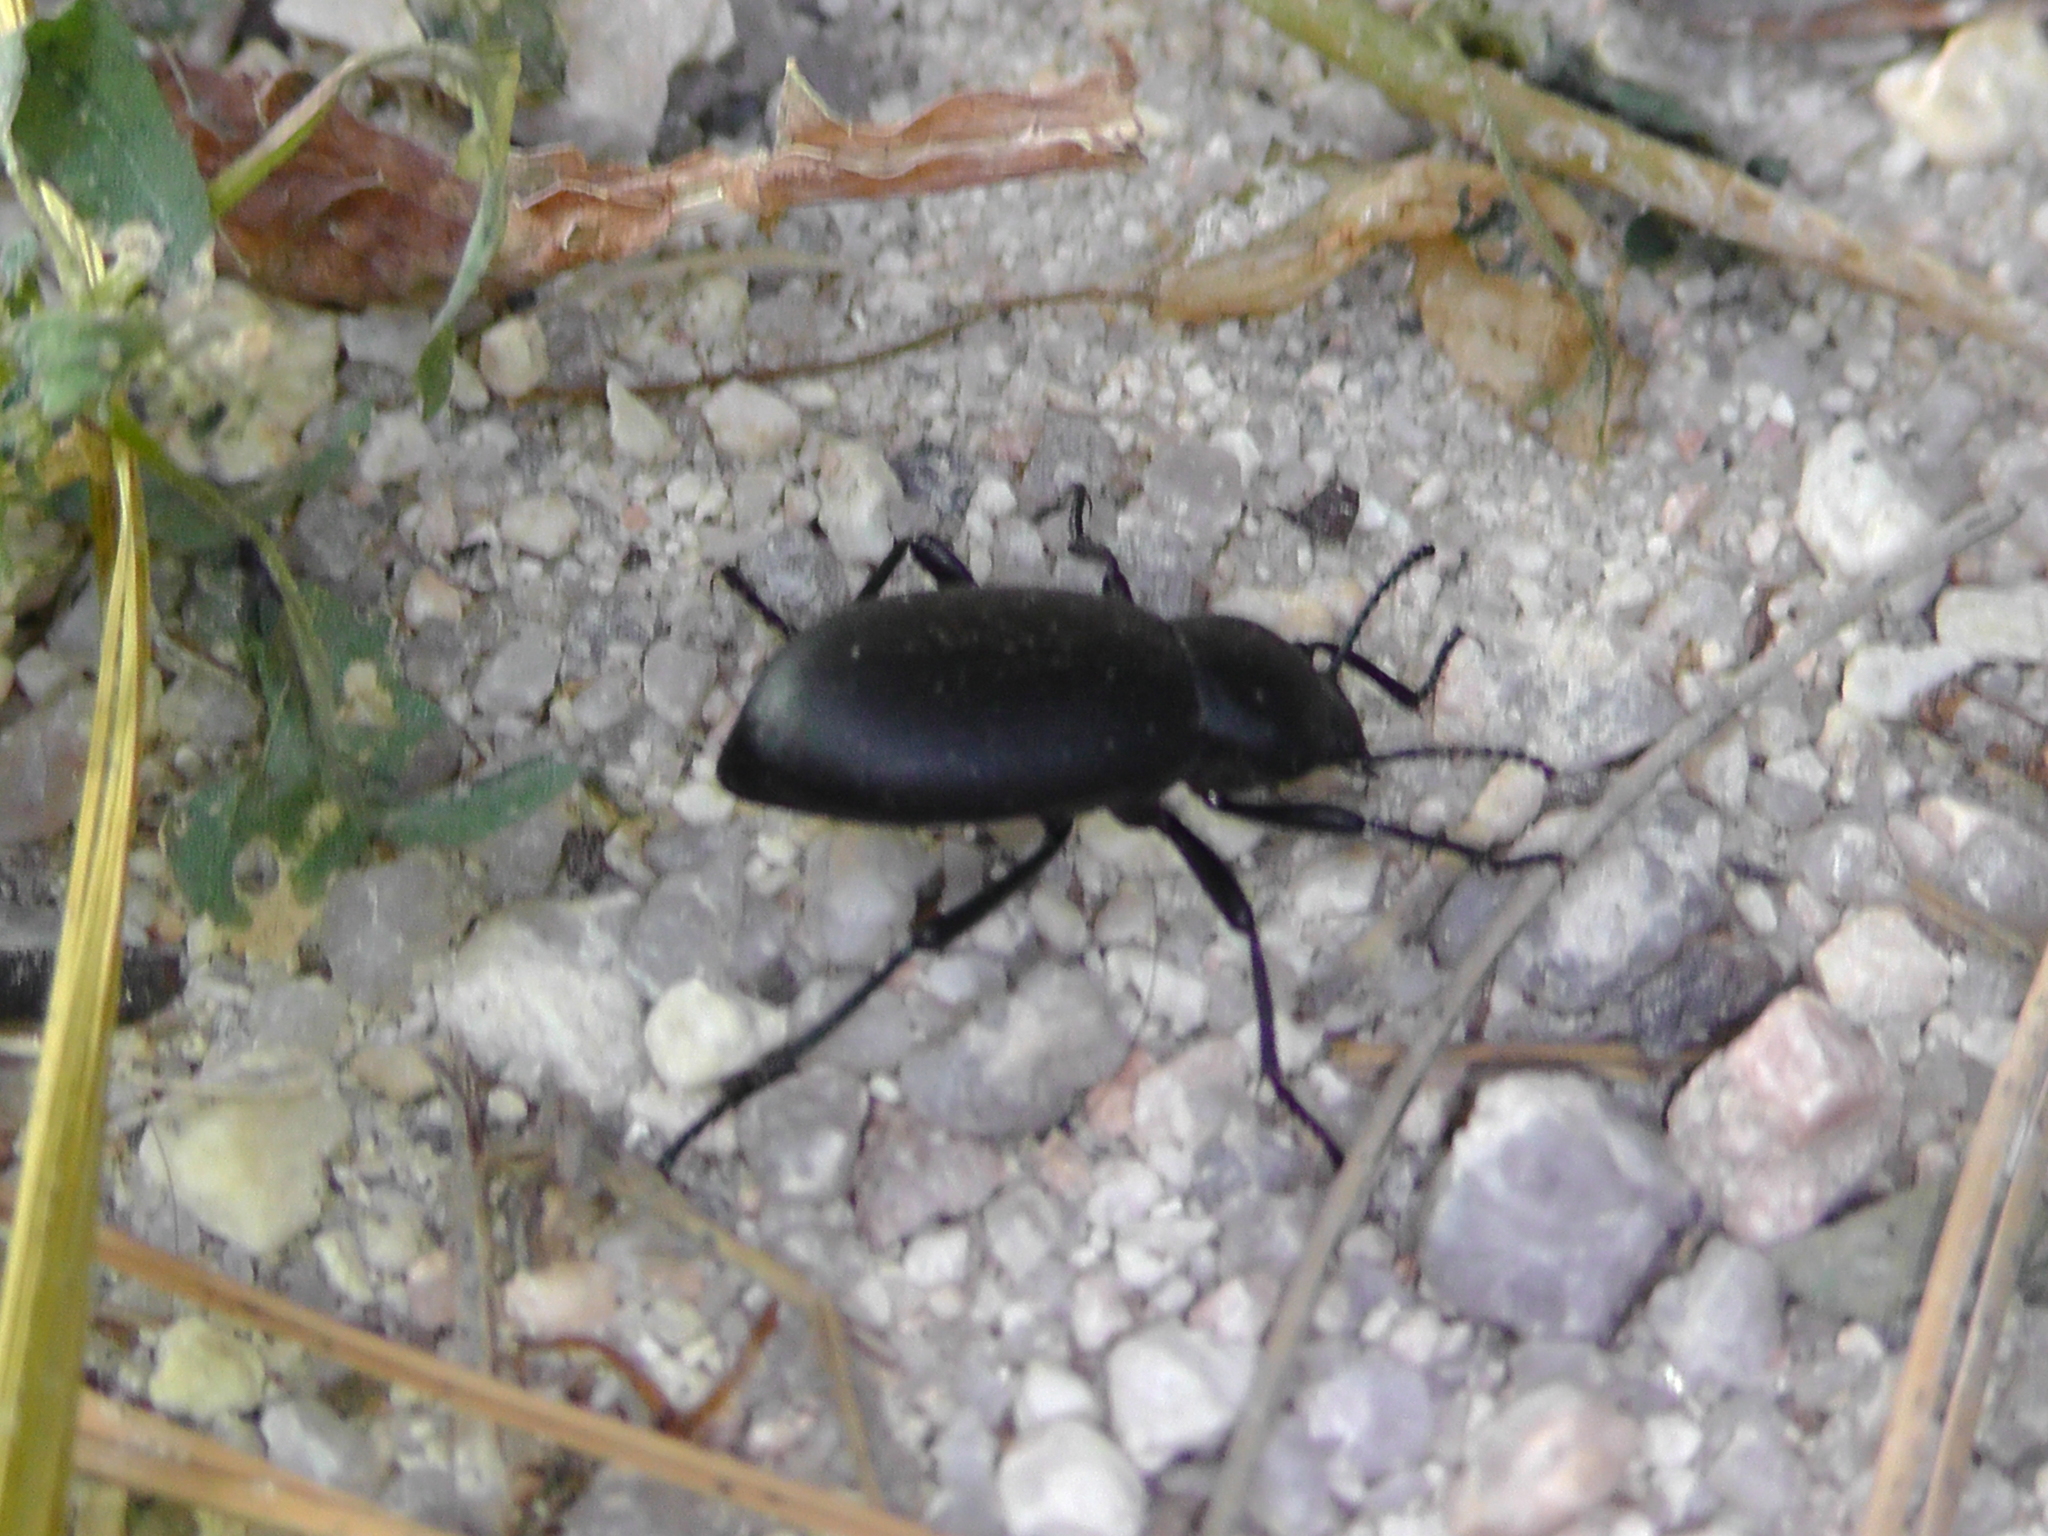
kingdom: Animalia
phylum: Arthropoda
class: Insecta
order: Coleoptera
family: Tenebrionidae
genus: Eleodes
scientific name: Eleodes longicollis
